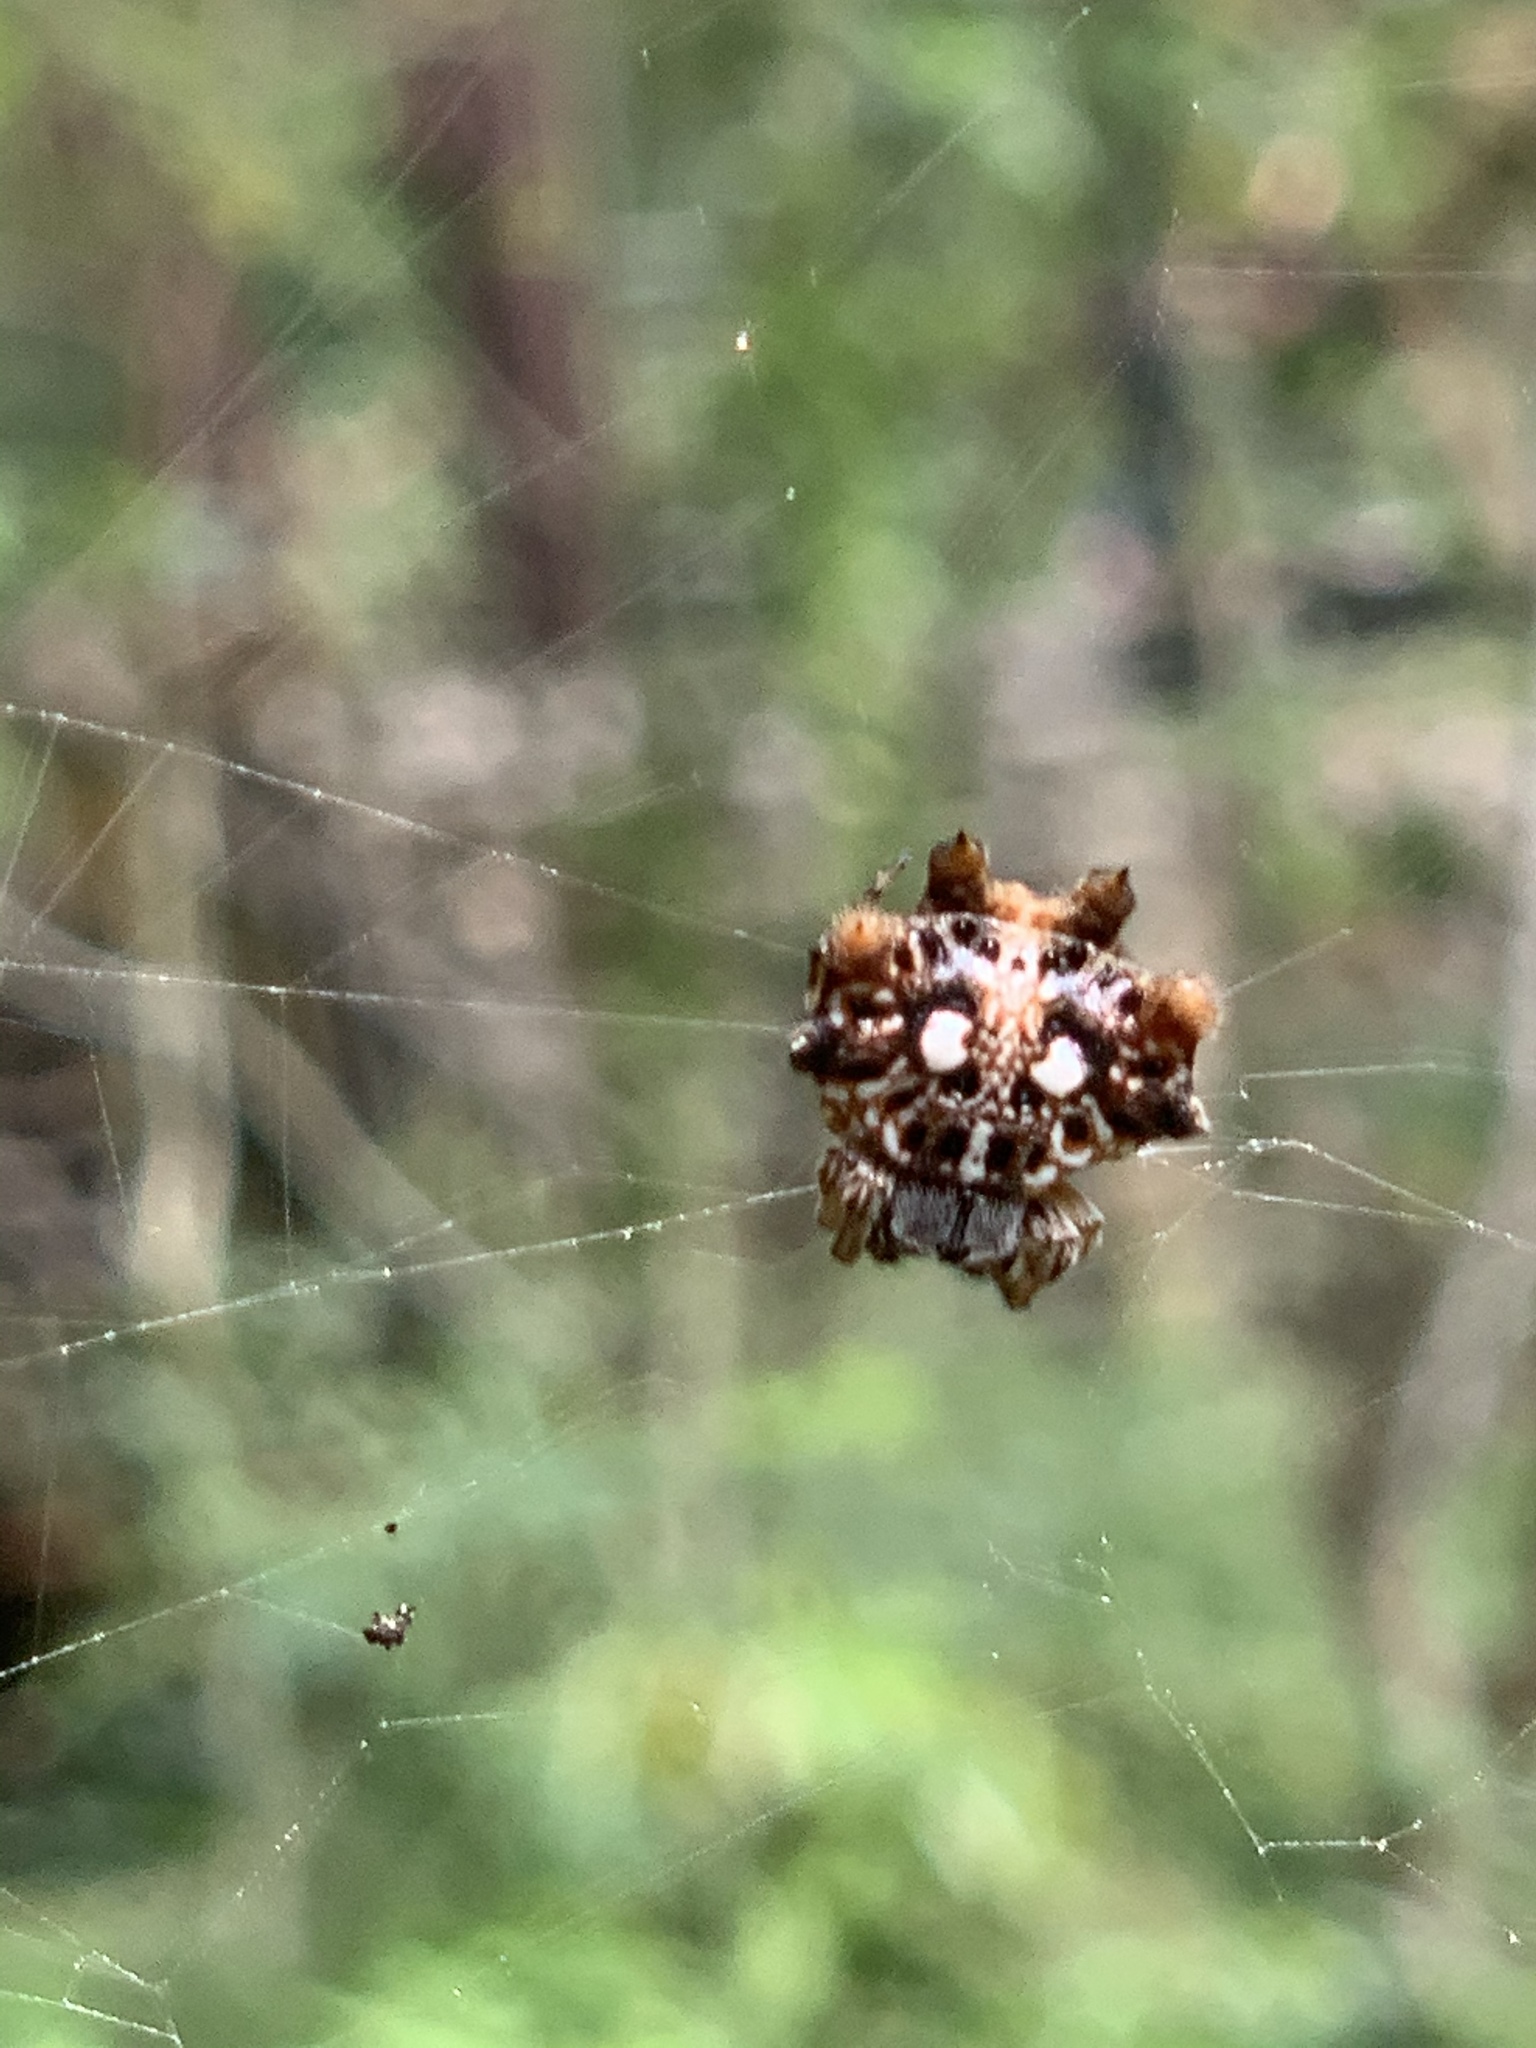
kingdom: Animalia
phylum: Arthropoda
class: Arachnida
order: Araneae
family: Araneidae
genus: Thelacantha
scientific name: Thelacantha brevispina
